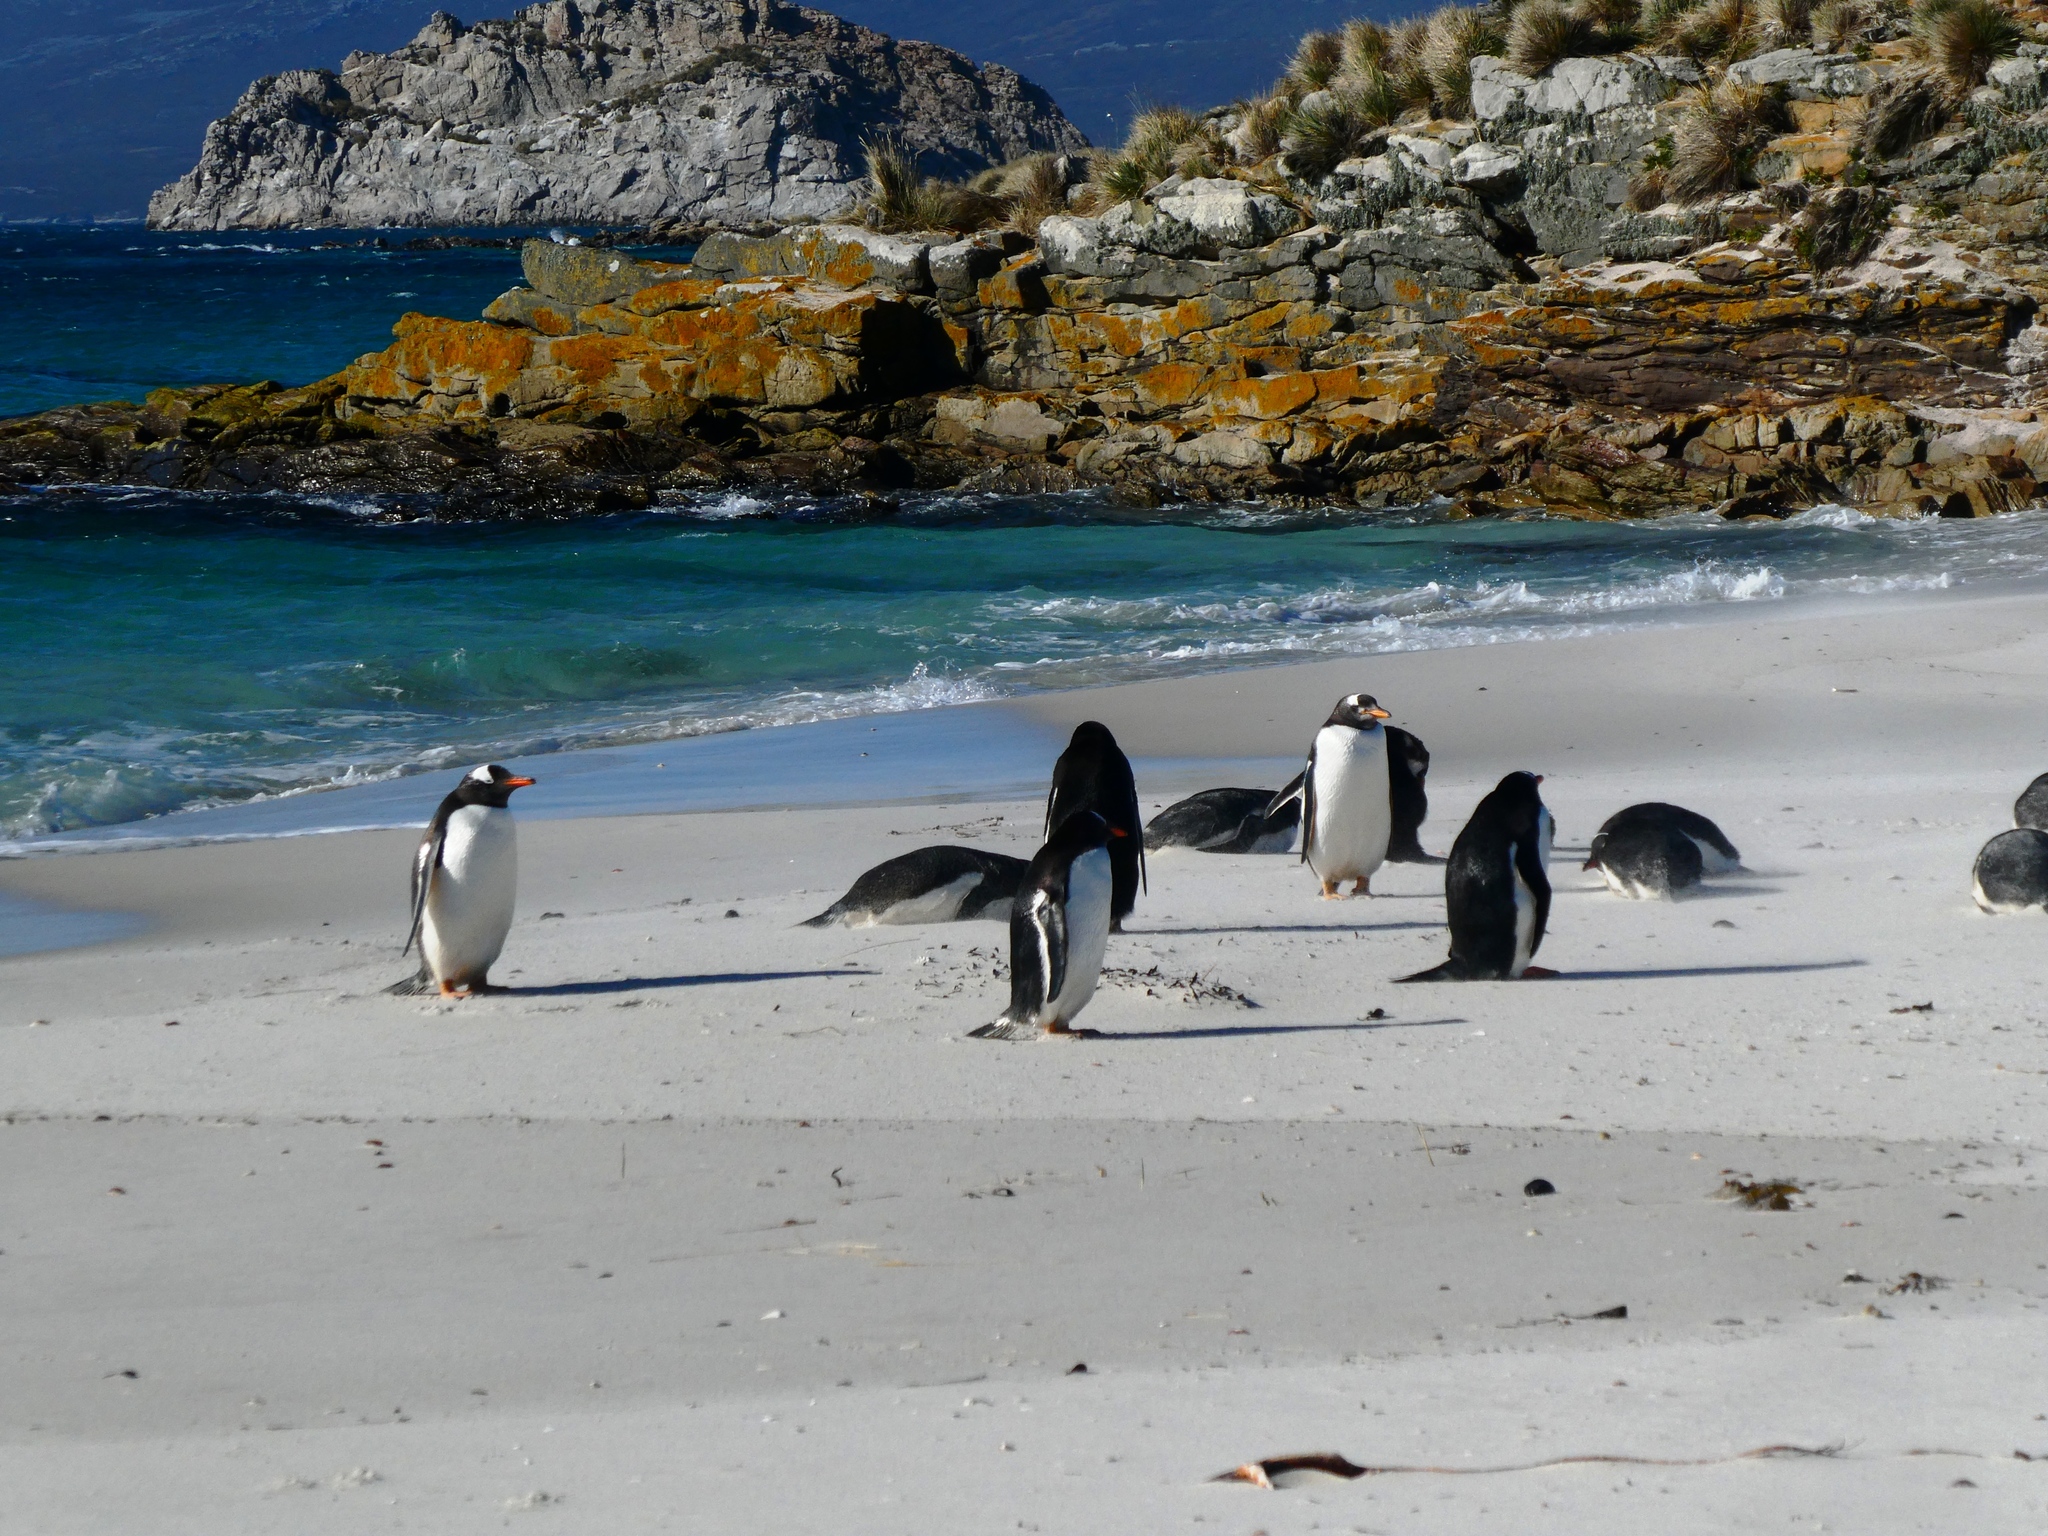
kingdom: Animalia
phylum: Chordata
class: Aves
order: Sphenisciformes
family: Spheniscidae
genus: Pygoscelis
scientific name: Pygoscelis papua
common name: Gentoo penguin
